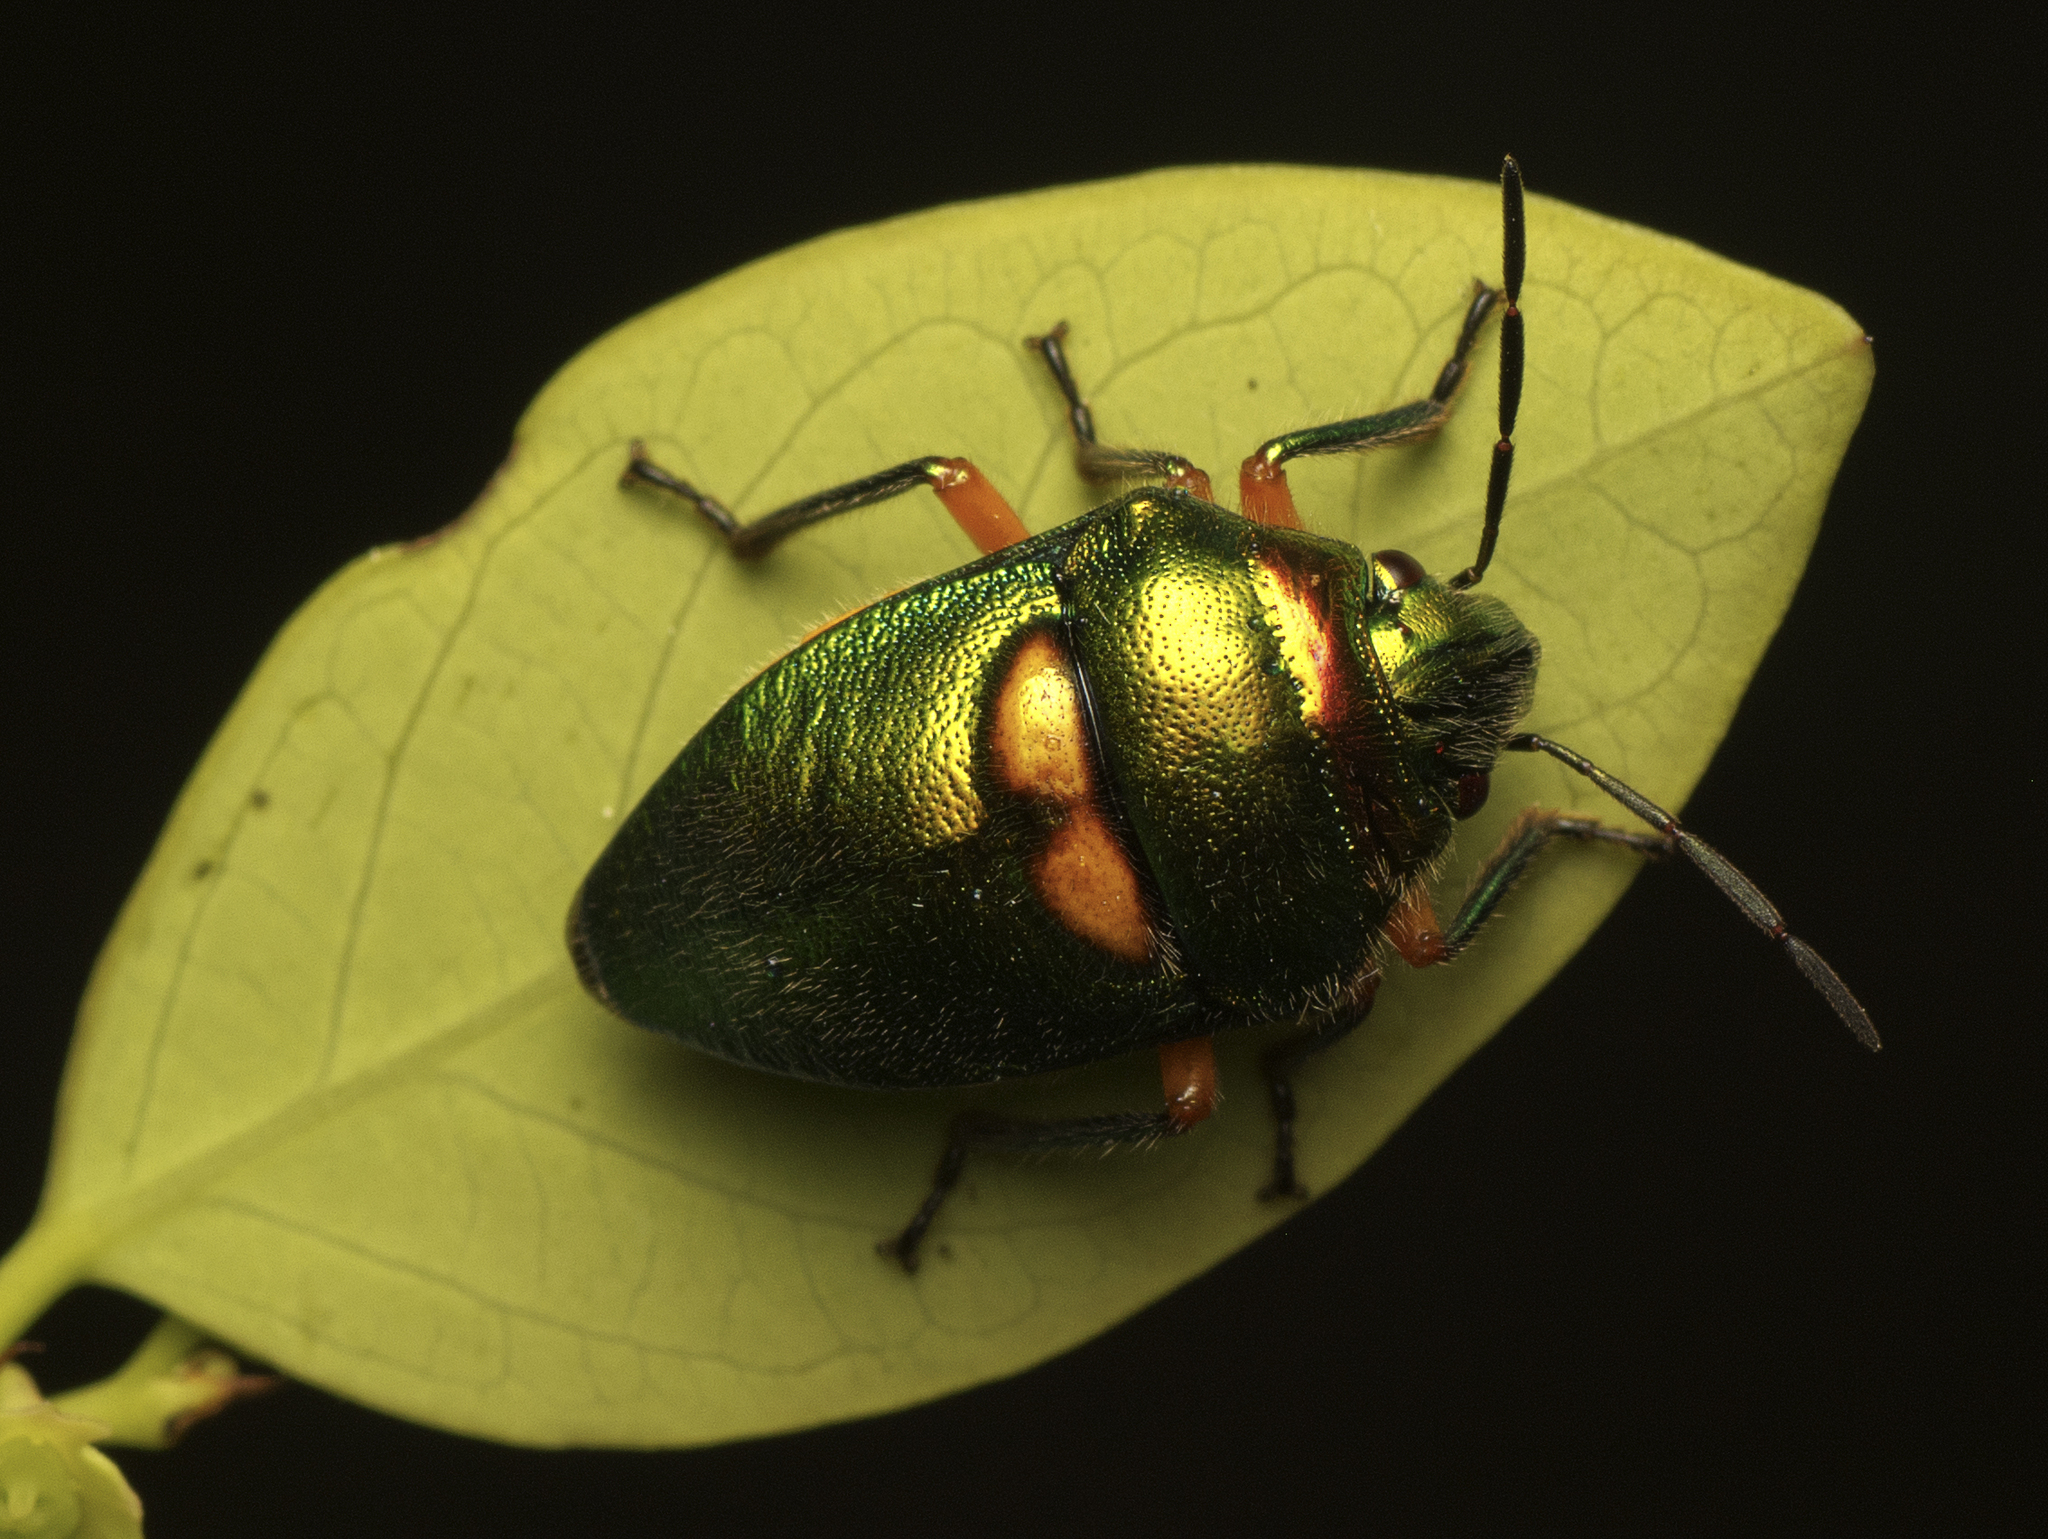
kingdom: Animalia
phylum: Arthropoda
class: Insecta
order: Hemiptera
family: Scutelleridae
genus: Lampromicra
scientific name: Lampromicra senator
